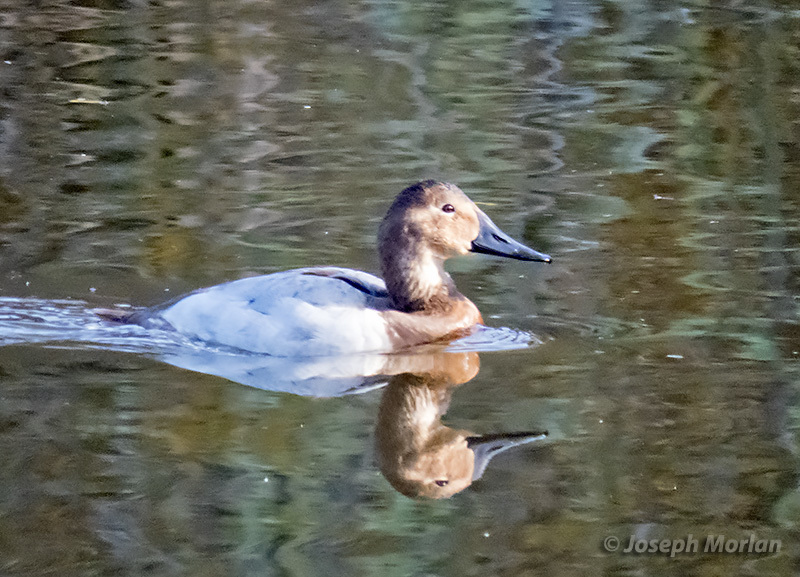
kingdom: Animalia
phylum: Chordata
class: Aves
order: Anseriformes
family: Anatidae
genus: Aythya
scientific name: Aythya valisineria
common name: Canvasback
